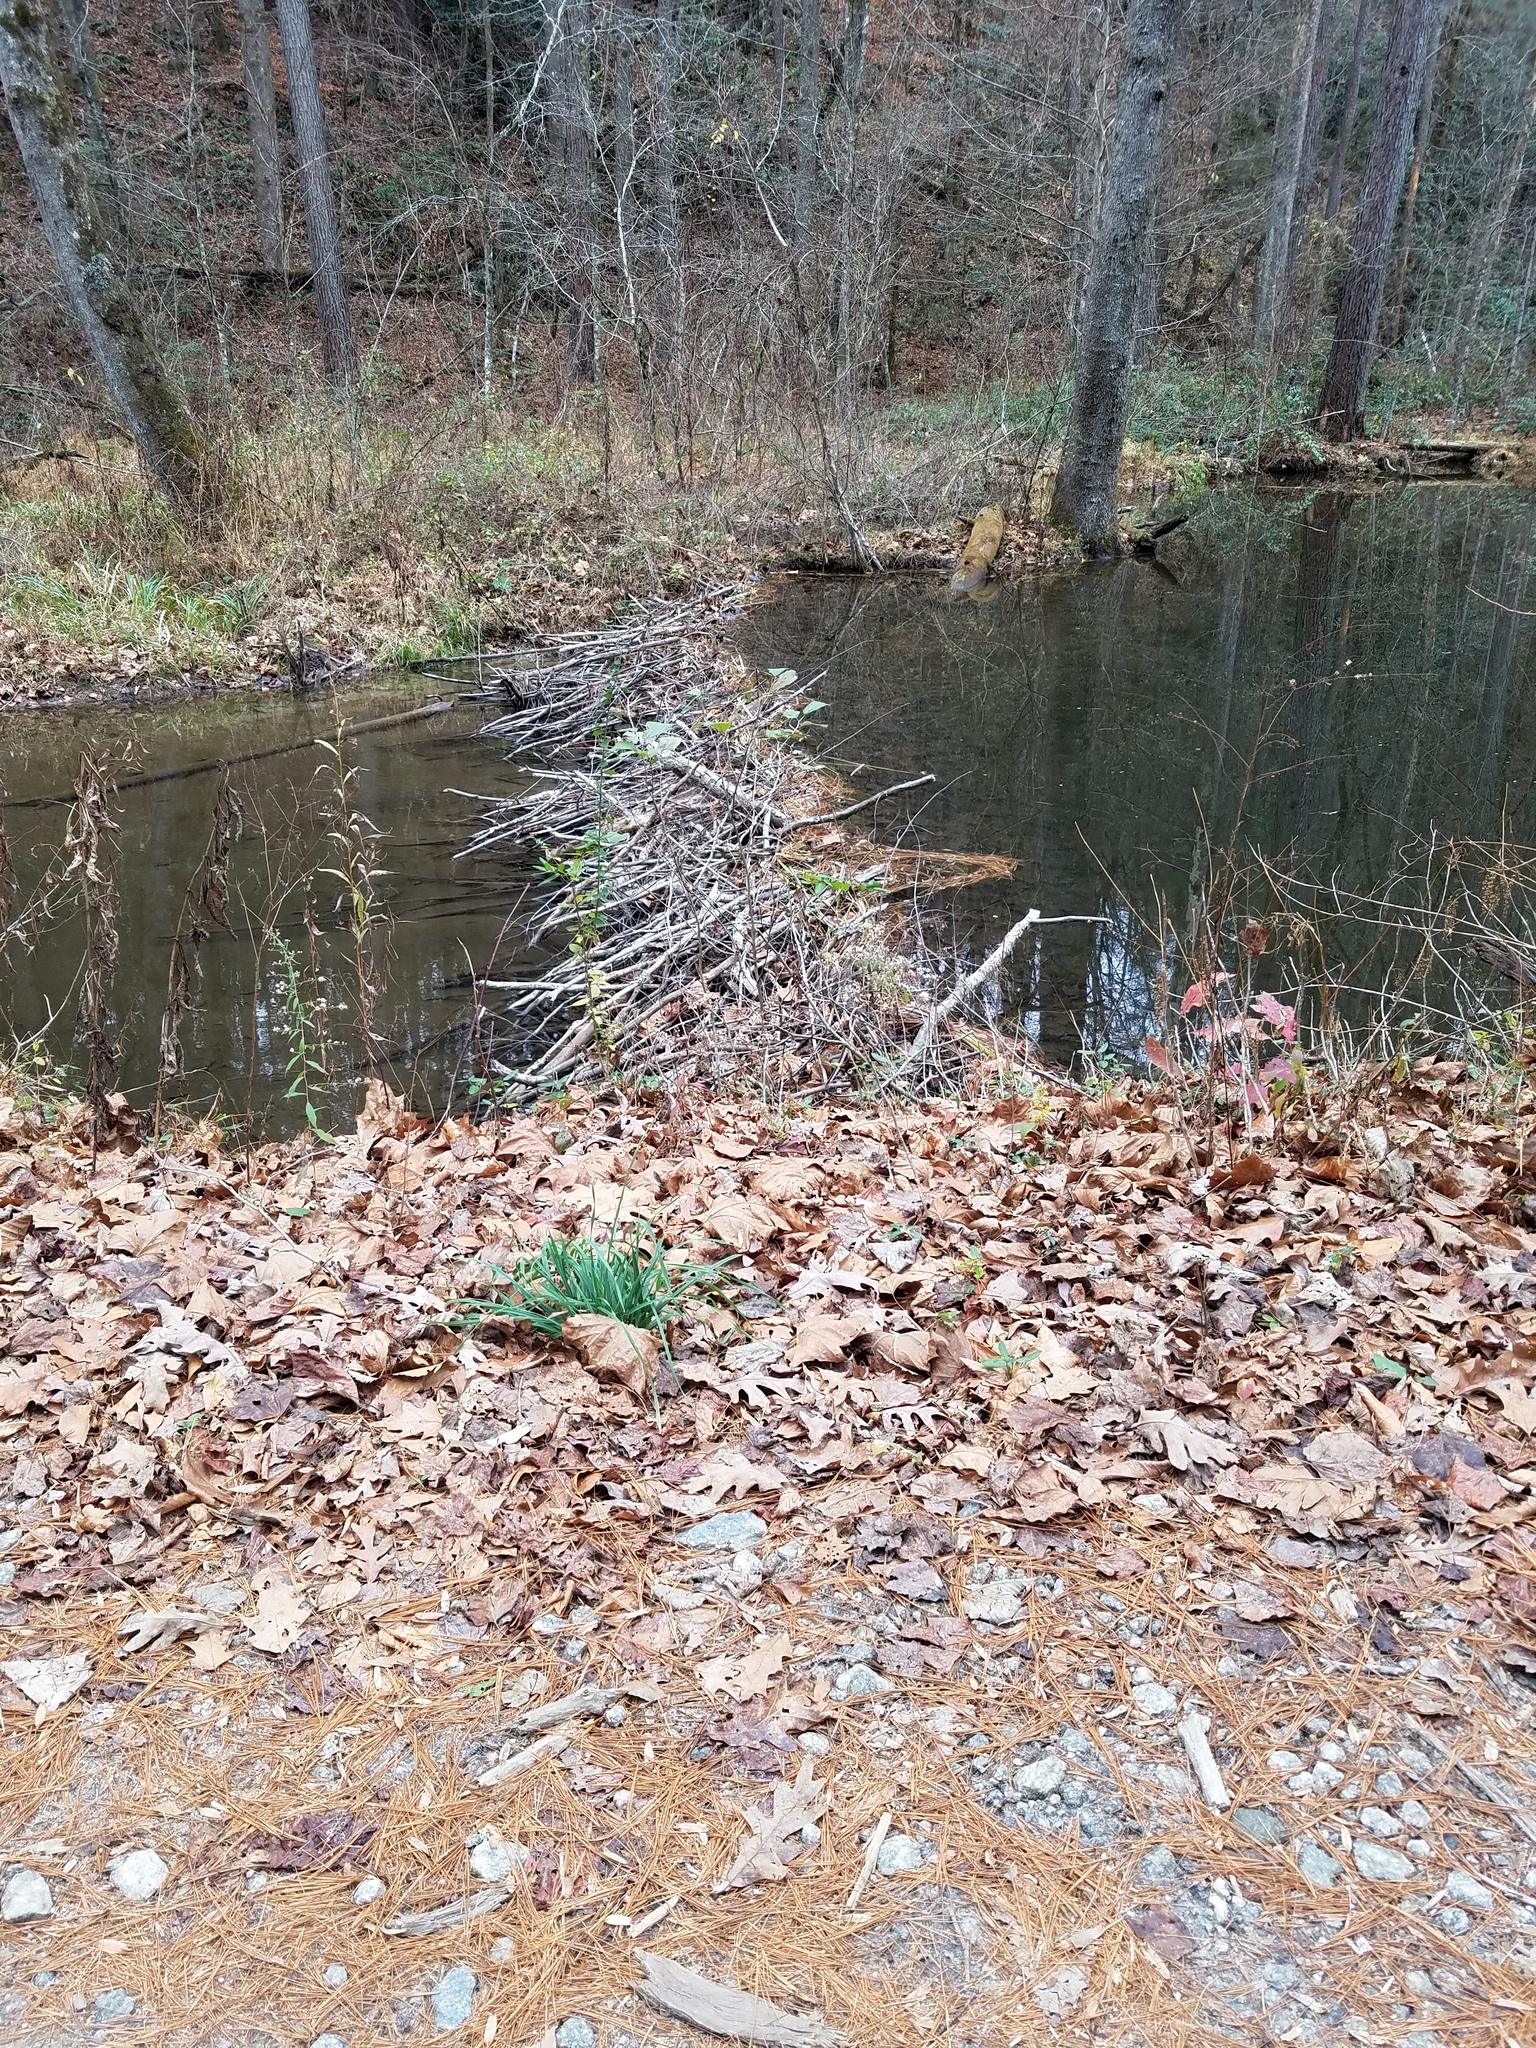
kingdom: Animalia
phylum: Chordata
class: Mammalia
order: Rodentia
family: Castoridae
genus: Castor
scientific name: Castor canadensis
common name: American beaver
